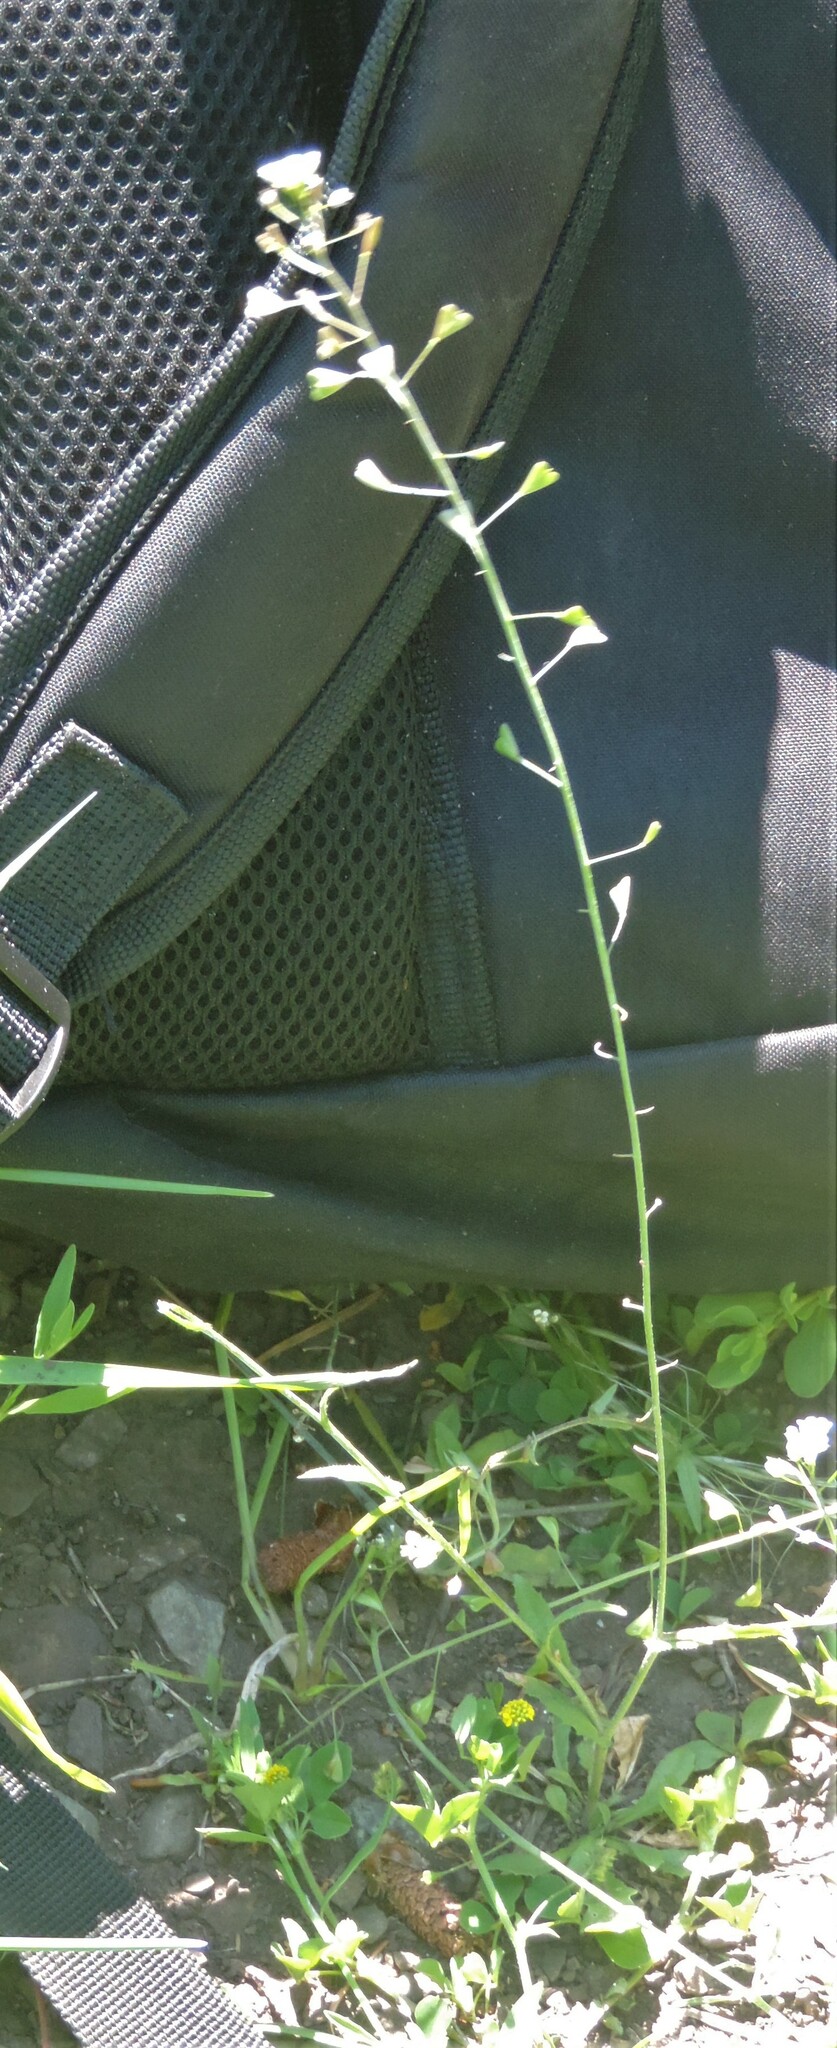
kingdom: Plantae
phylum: Tracheophyta
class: Magnoliopsida
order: Brassicales
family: Brassicaceae
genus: Capsella
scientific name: Capsella bursa-pastoris
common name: Shepherd's purse
